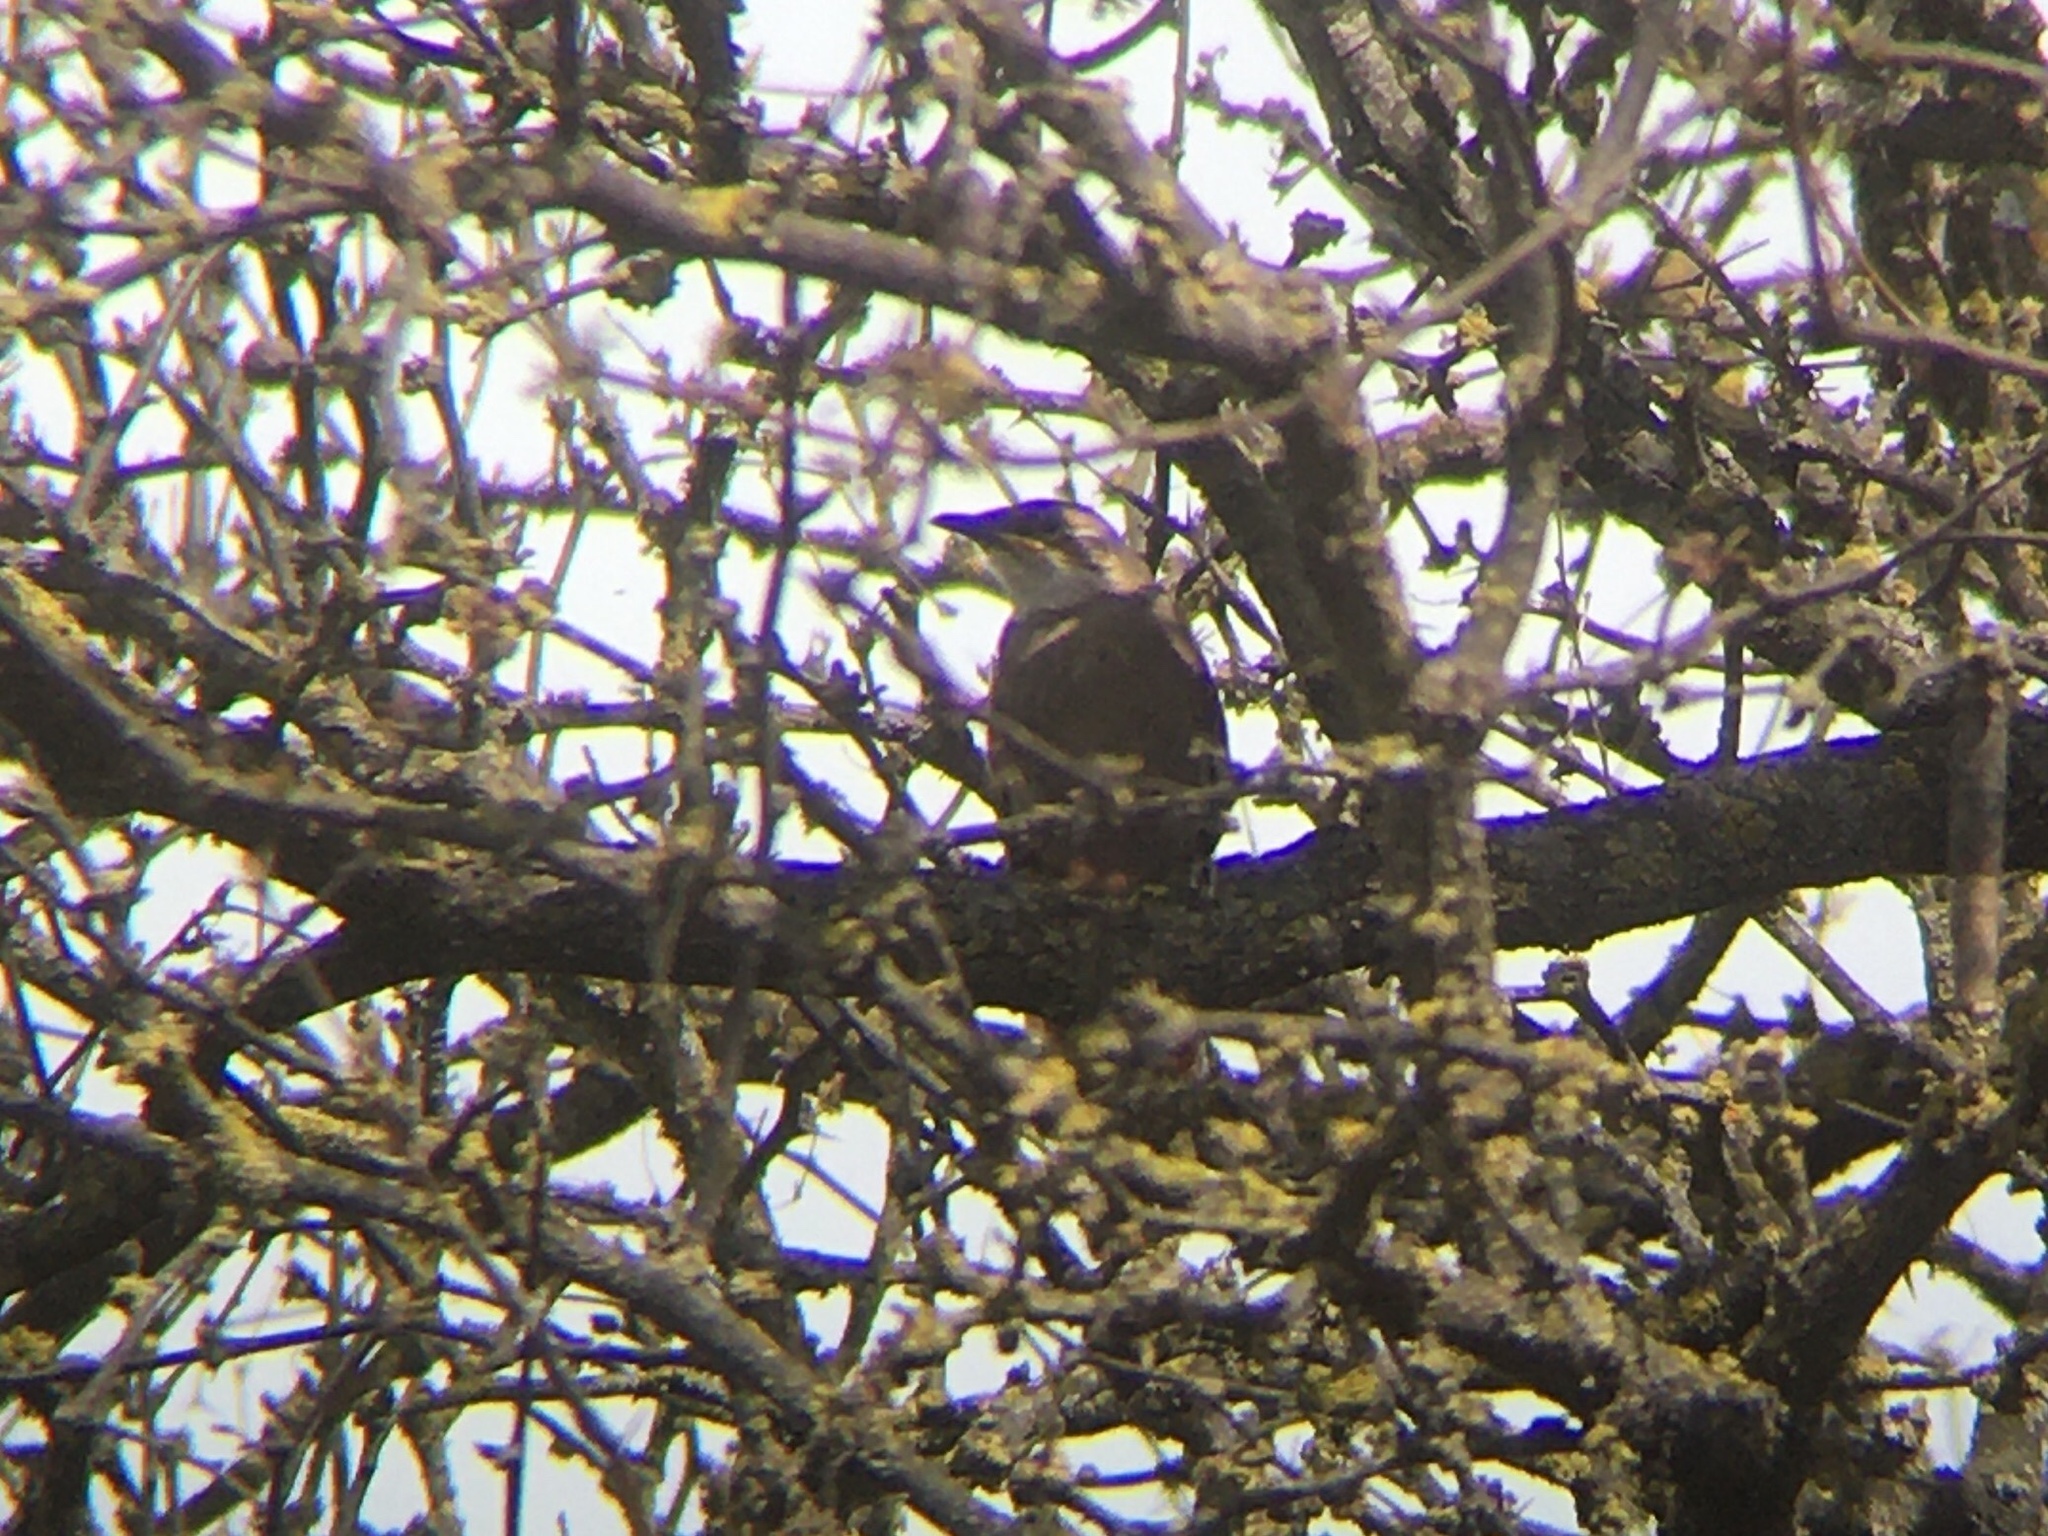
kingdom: Animalia
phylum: Chordata
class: Aves
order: Passeriformes
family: Furnariidae
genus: Upucerthia
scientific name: Upucerthia certhioides
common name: Chaco earthcreeper
